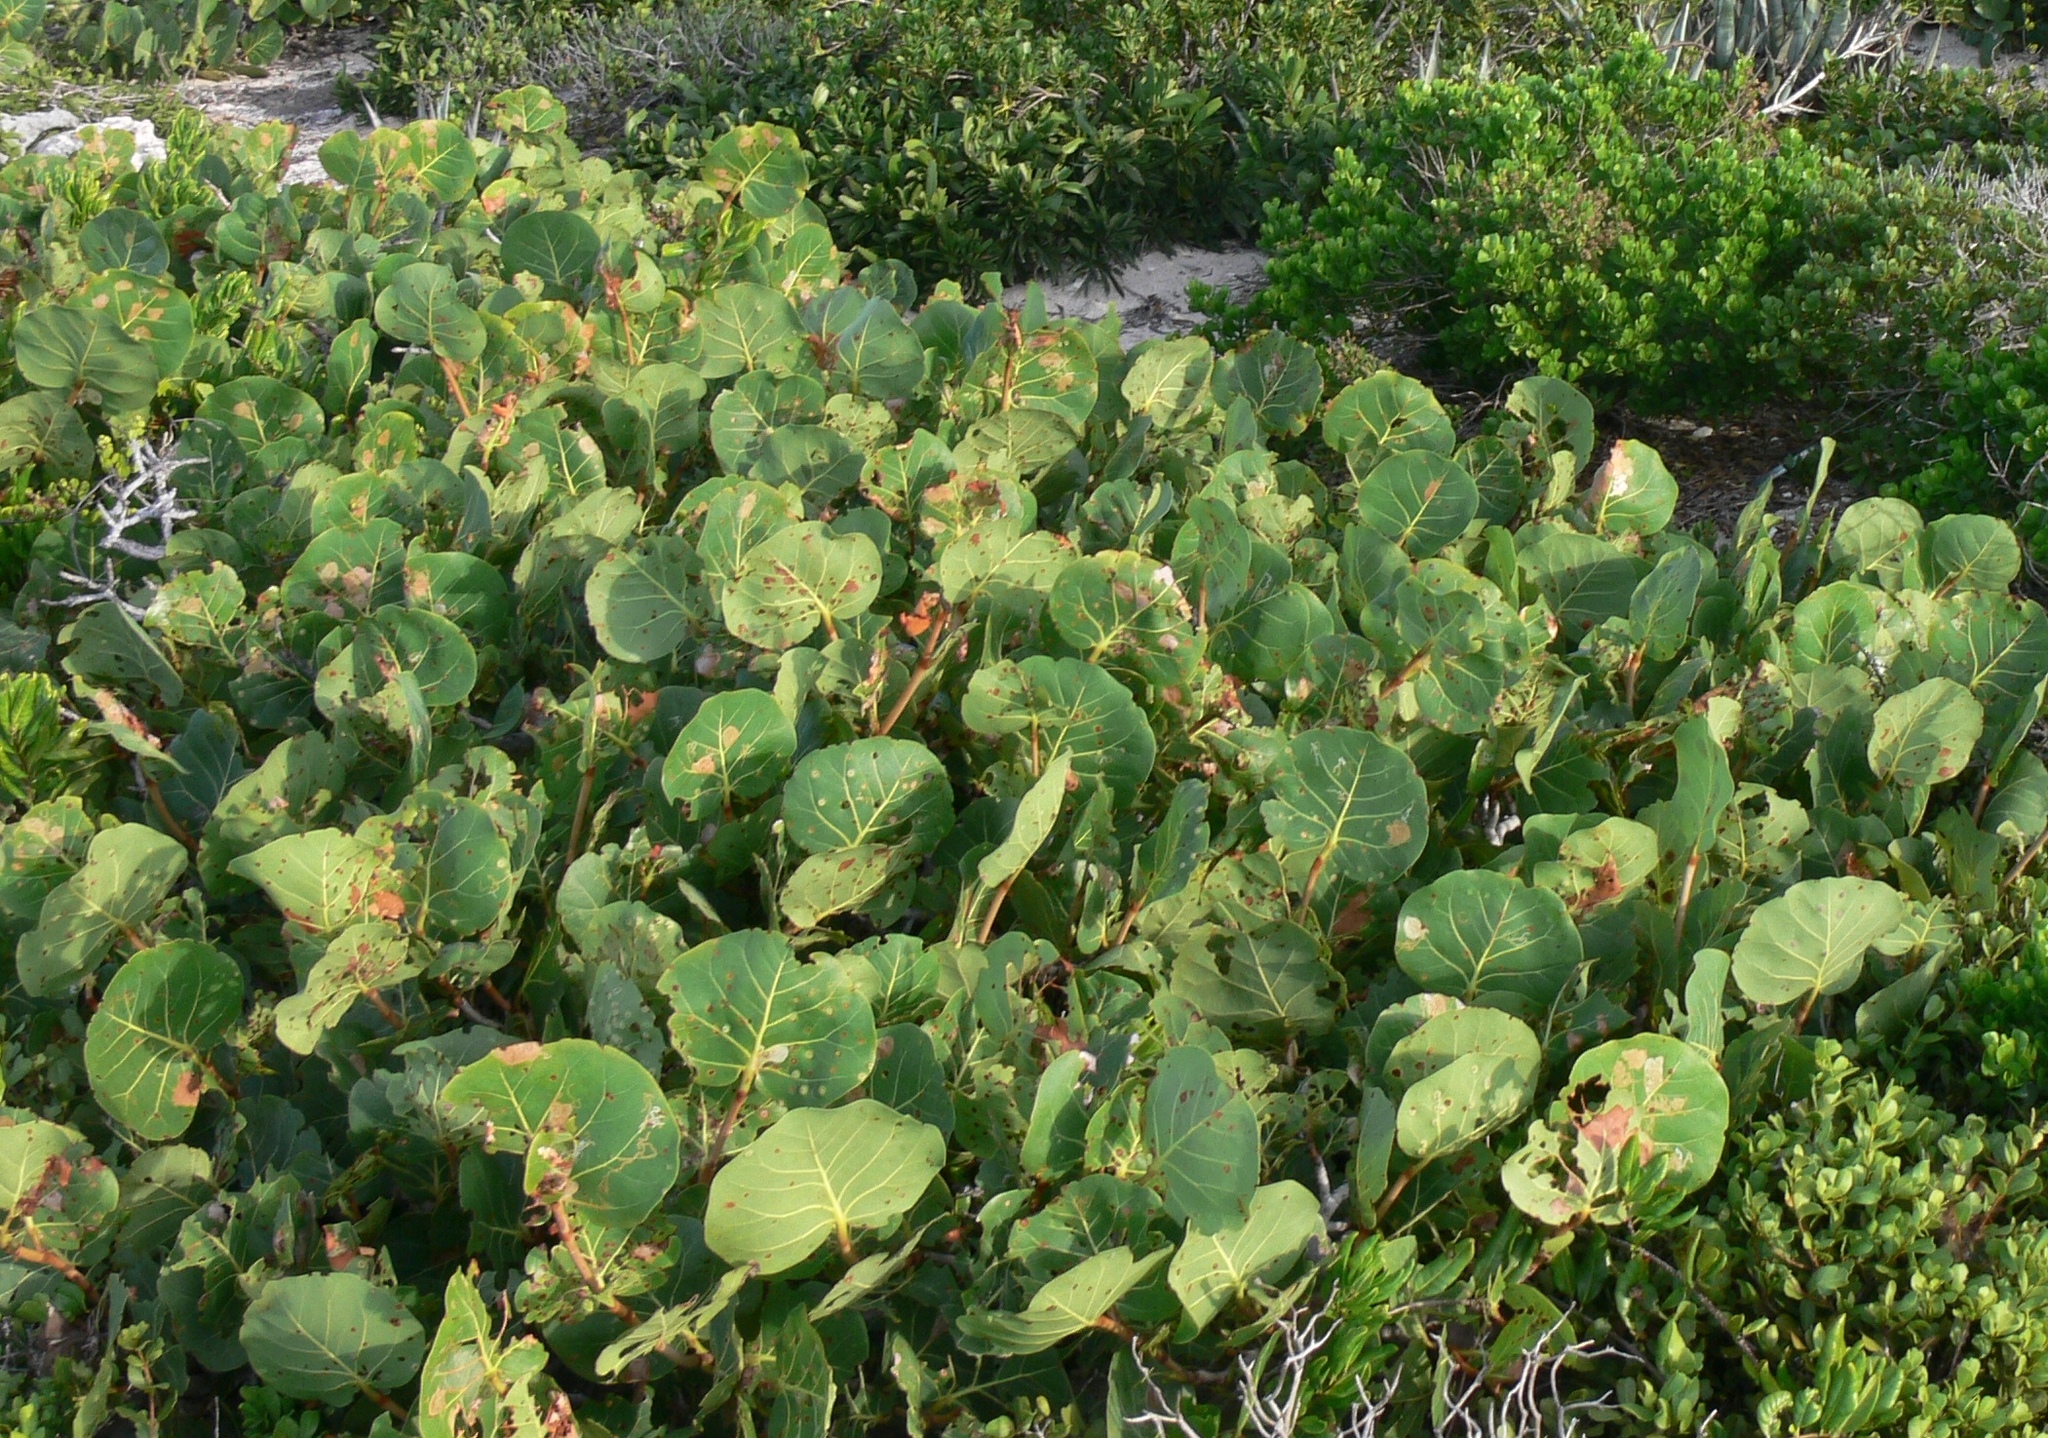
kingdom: Plantae
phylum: Tracheophyta
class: Magnoliopsida
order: Caryophyllales
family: Polygonaceae
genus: Coccoloba
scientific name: Coccoloba uvifera
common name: Seagrape
